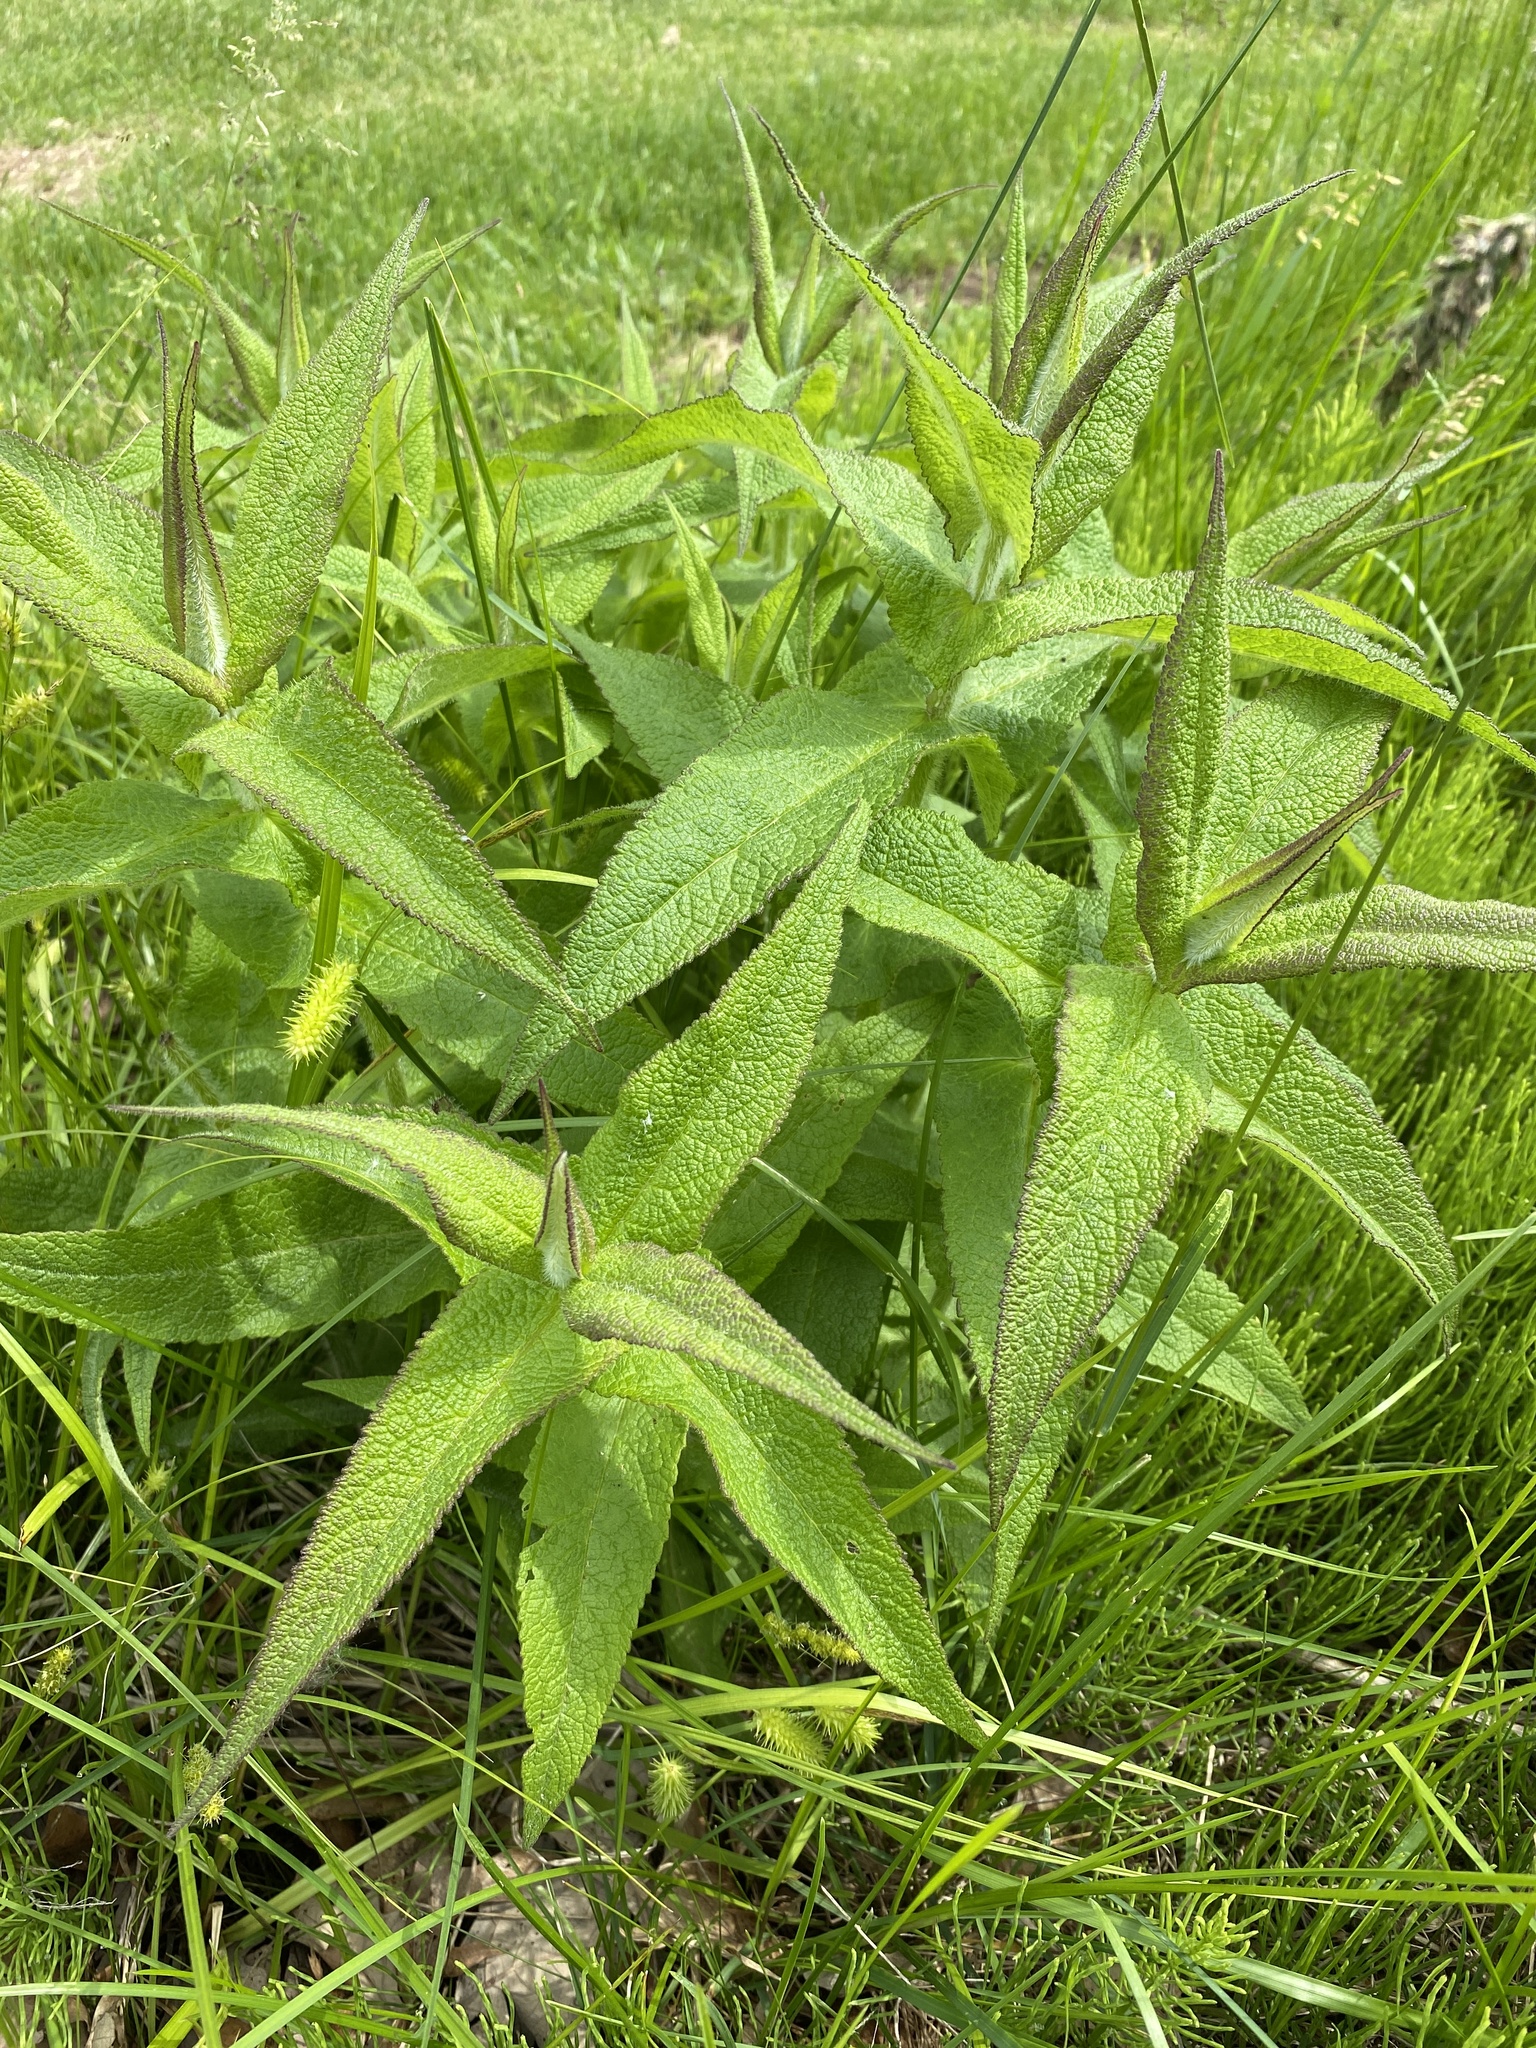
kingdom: Plantae
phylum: Tracheophyta
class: Magnoliopsida
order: Asterales
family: Asteraceae
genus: Eupatorium
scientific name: Eupatorium perfoliatum
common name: Boneset
